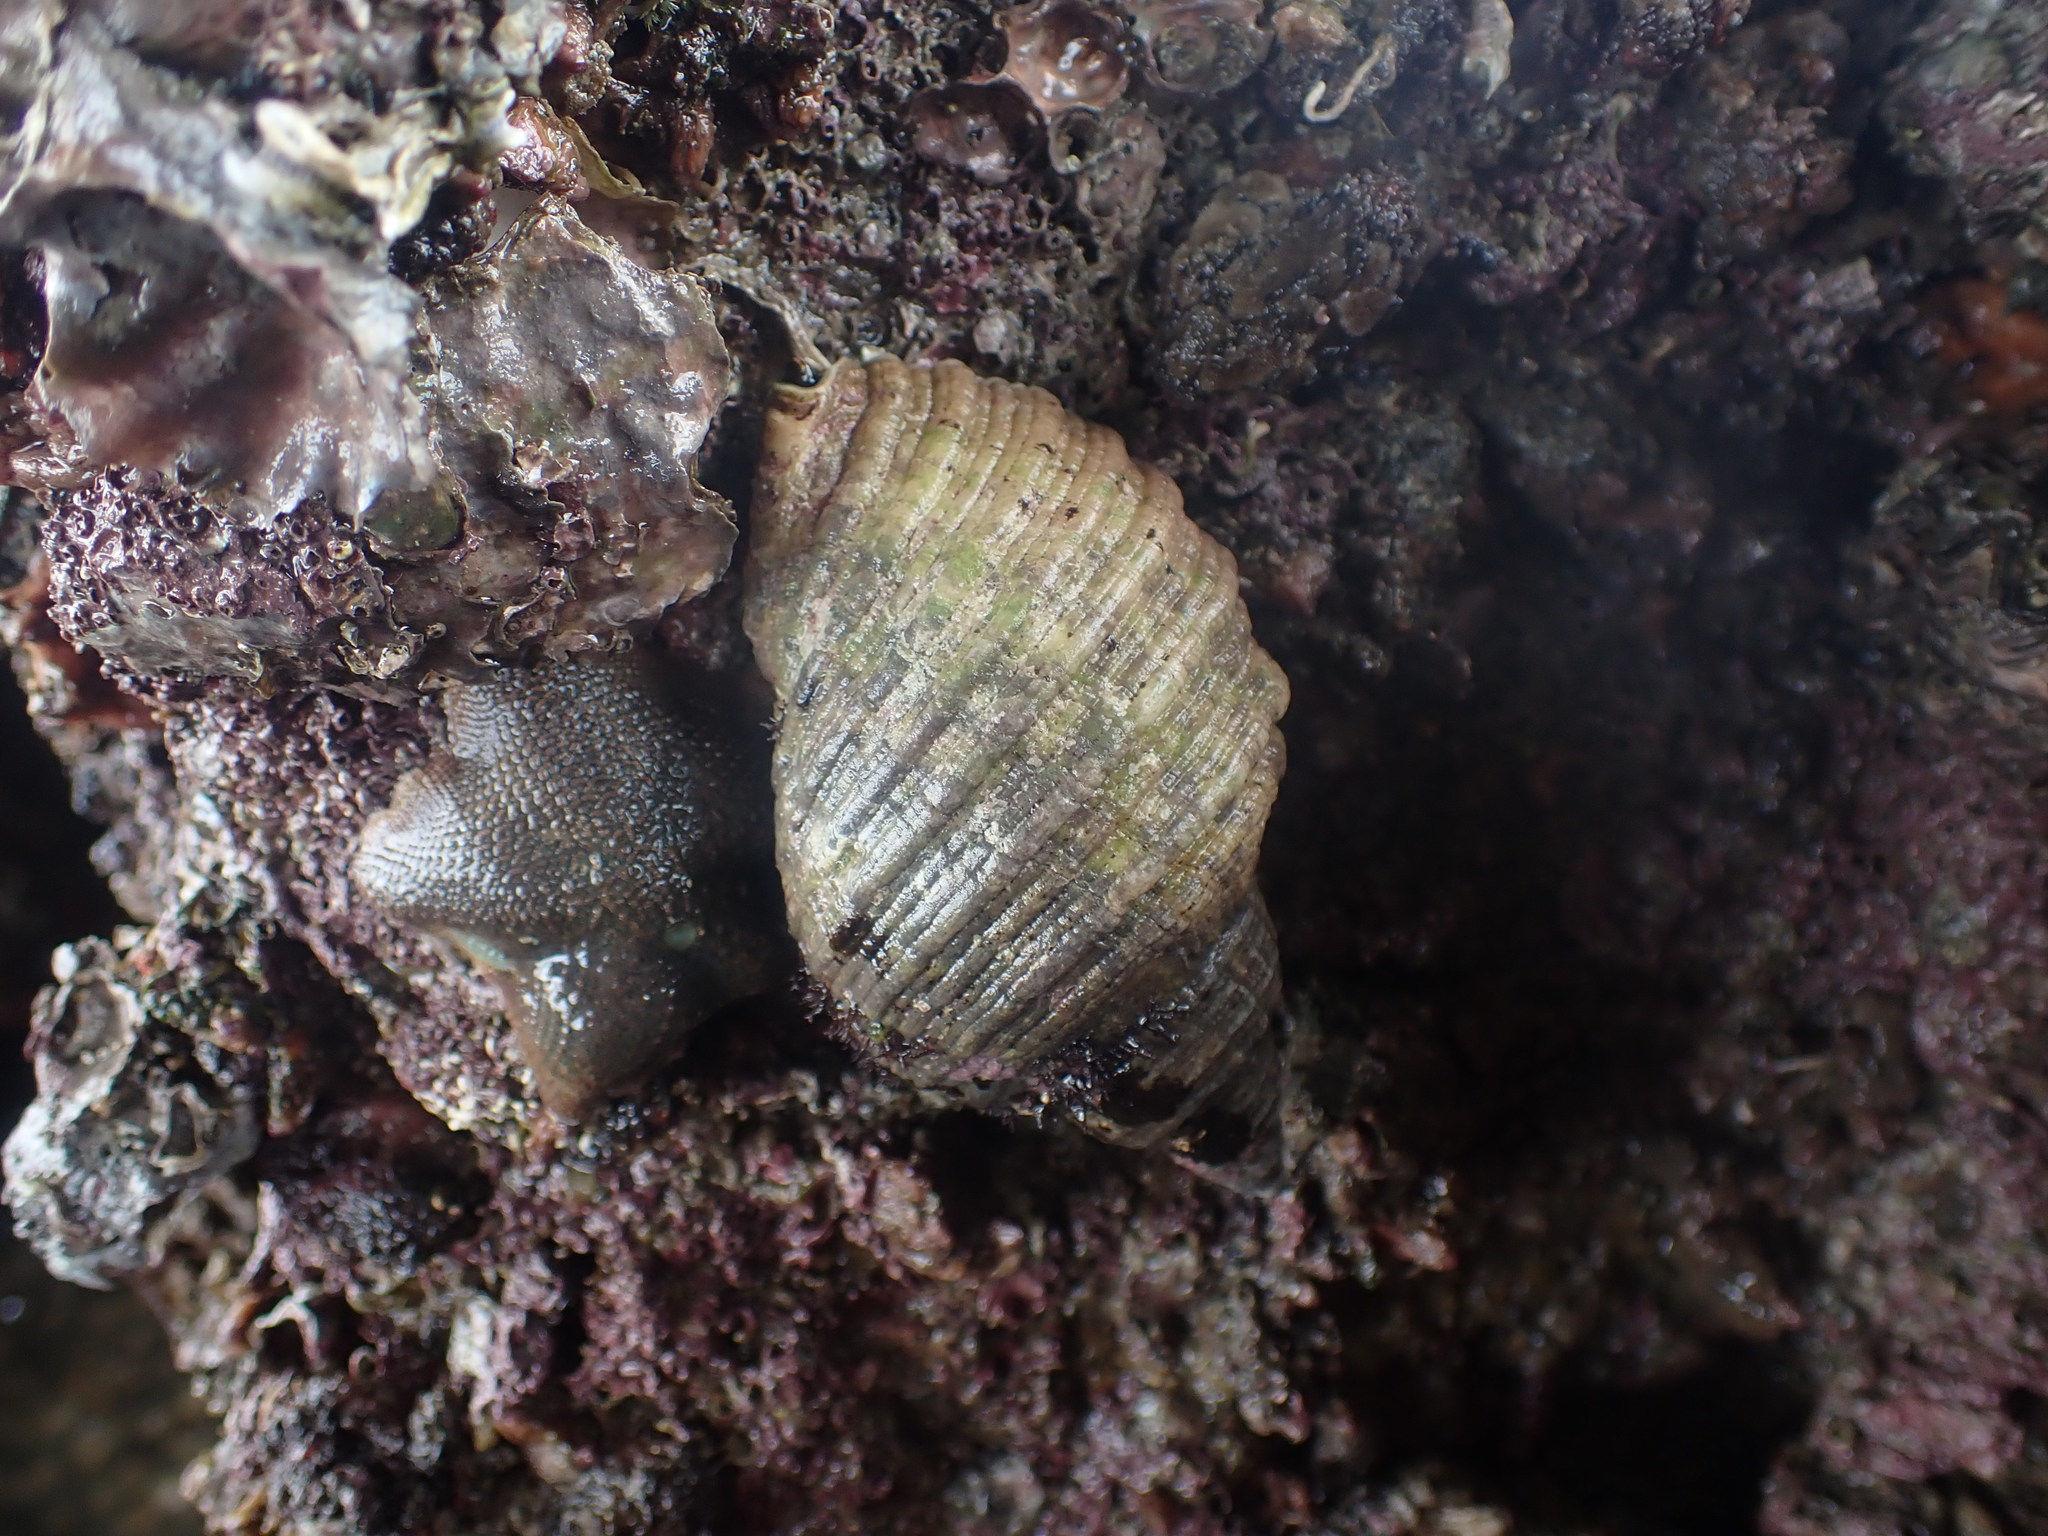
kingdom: Animalia
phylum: Mollusca
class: Gastropoda
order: Neogastropoda
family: Muricidae
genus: Dicathais
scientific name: Dicathais orbita
